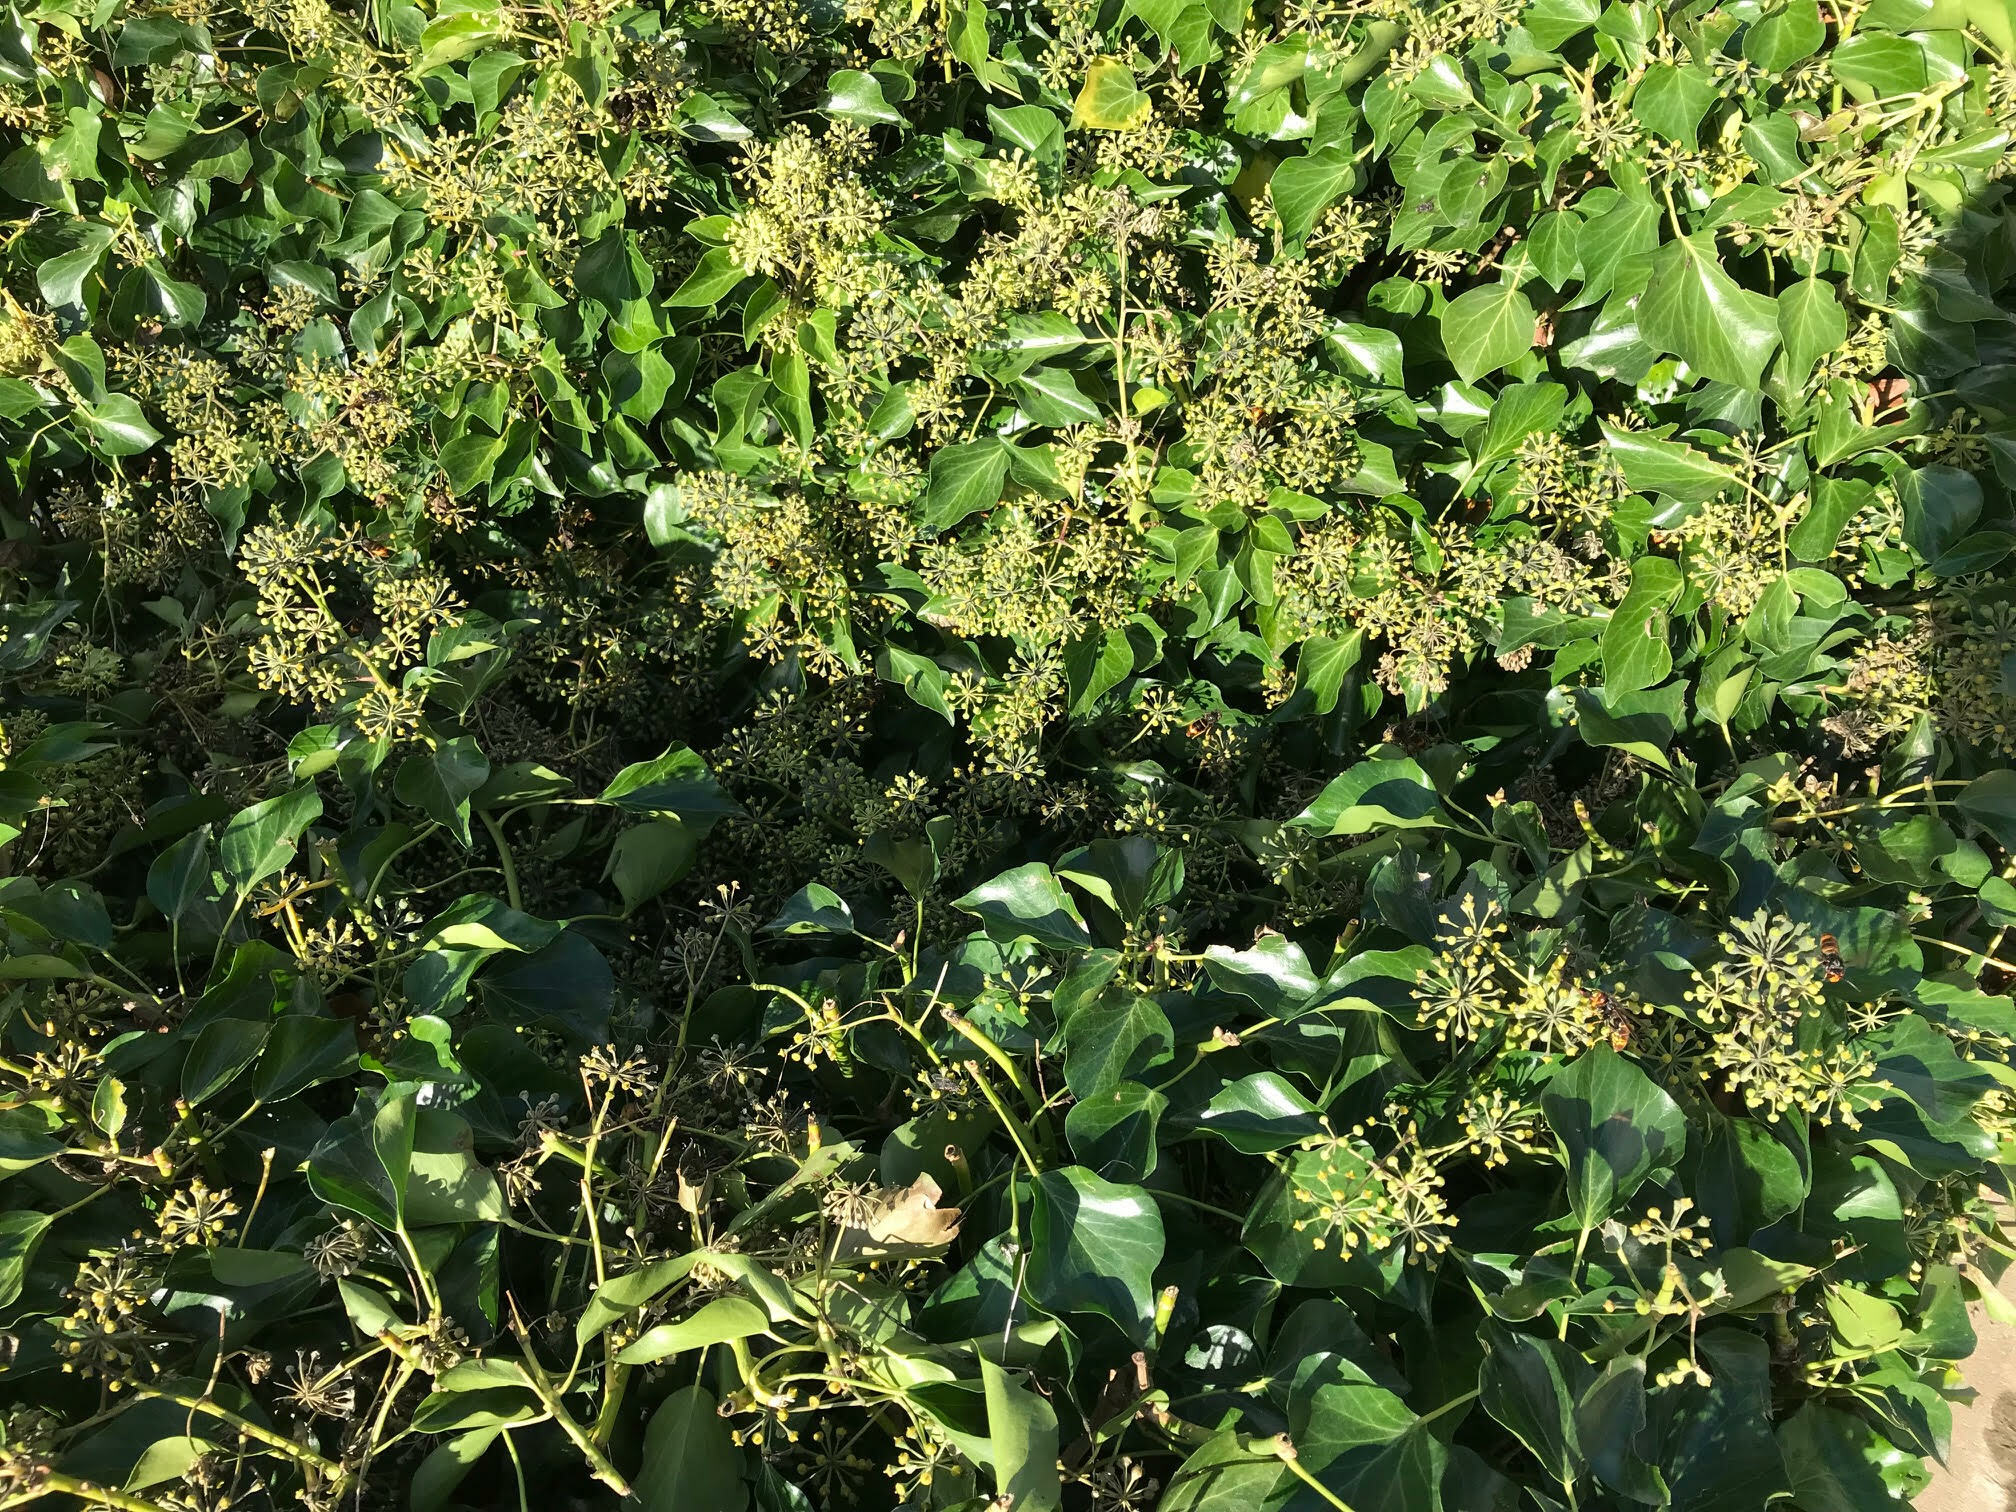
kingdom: Animalia
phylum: Arthropoda
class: Insecta
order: Hymenoptera
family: Vespidae
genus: Vespa
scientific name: Vespa velutina
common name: Asian hornet
